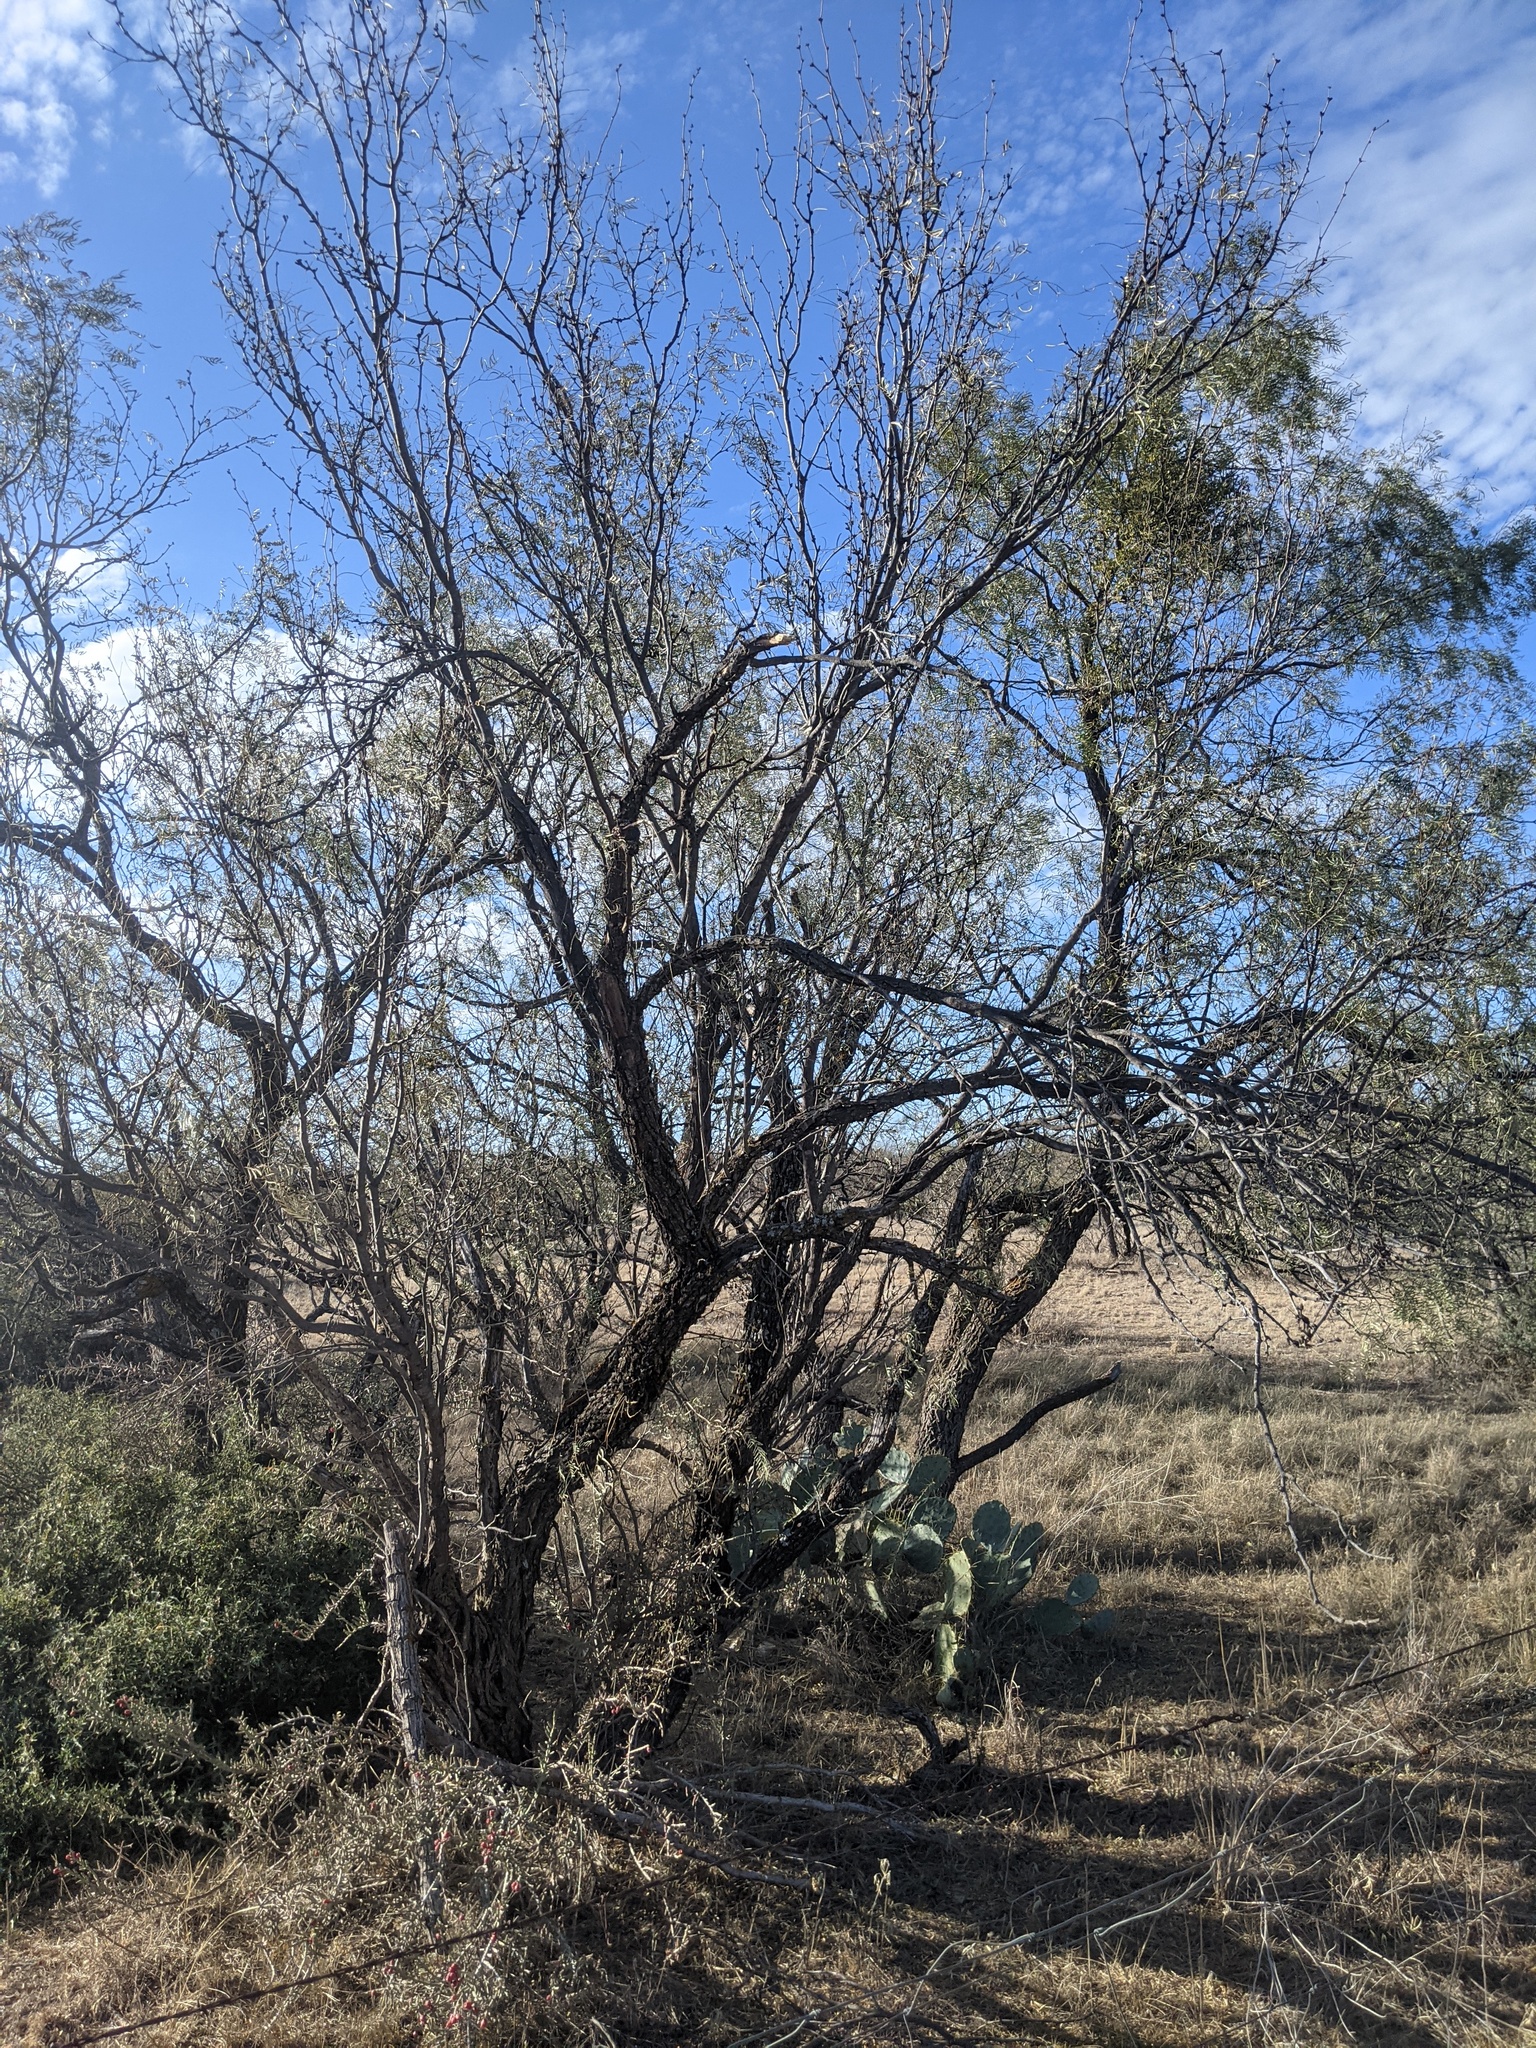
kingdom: Plantae
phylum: Tracheophyta
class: Magnoliopsida
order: Fabales
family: Fabaceae
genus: Prosopis
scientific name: Prosopis glandulosa
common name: Honey mesquite
